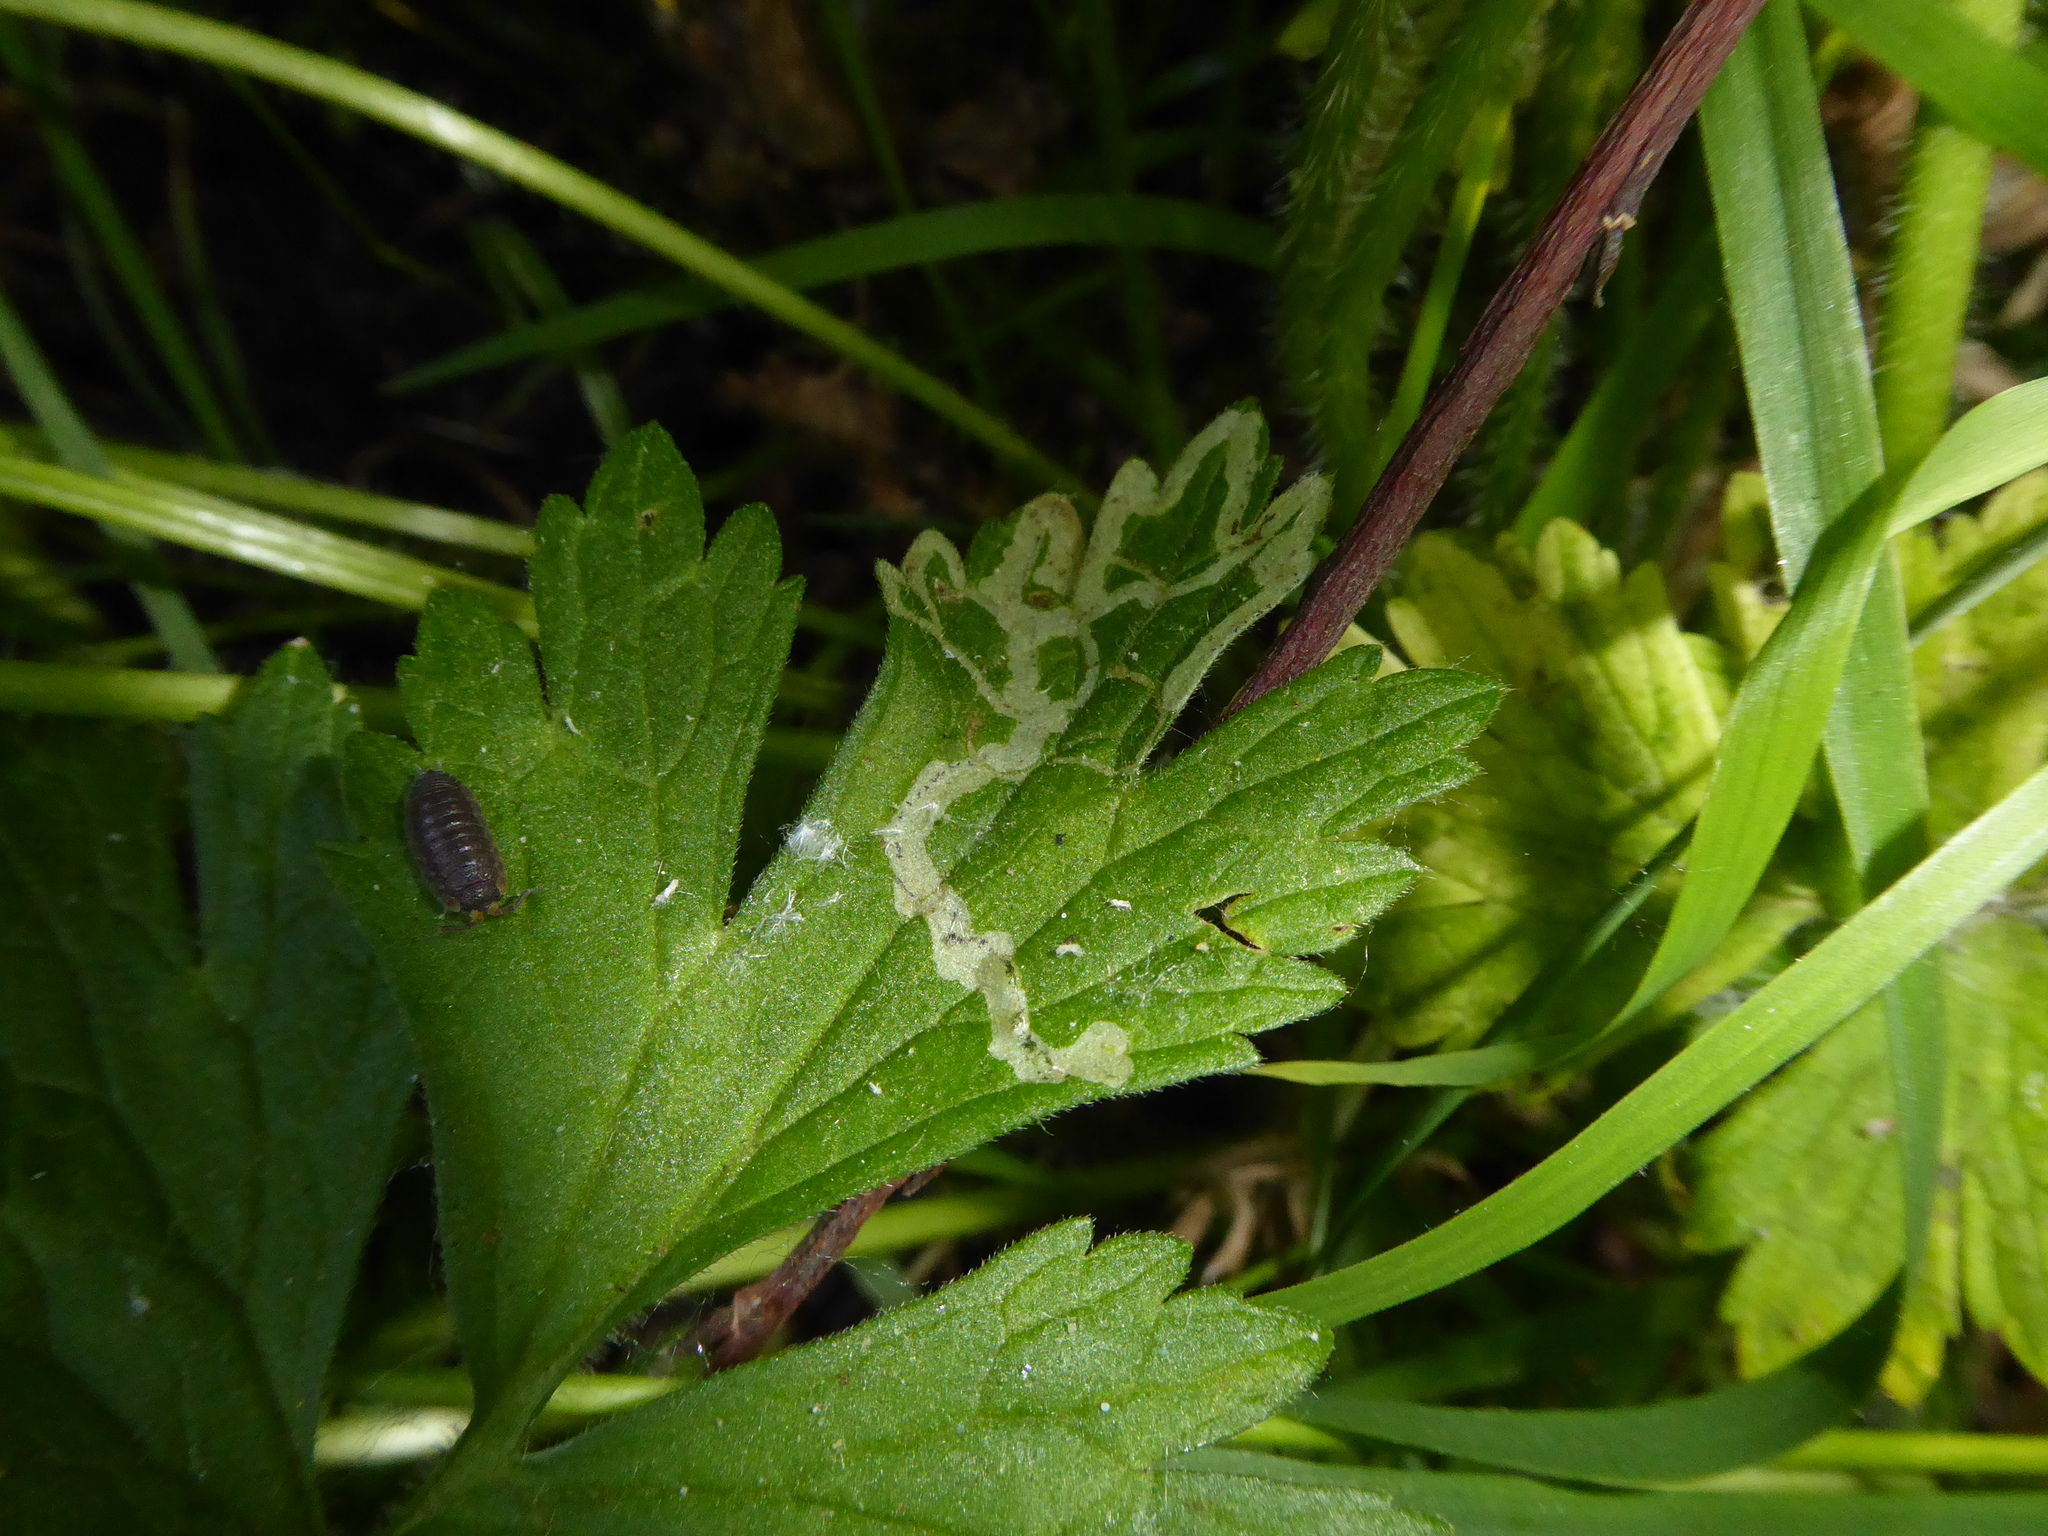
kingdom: Animalia
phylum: Arthropoda
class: Insecta
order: Diptera
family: Agromyzidae
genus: Phytomyza
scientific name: Phytomyza ranunculi
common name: Leaf-miner fly
